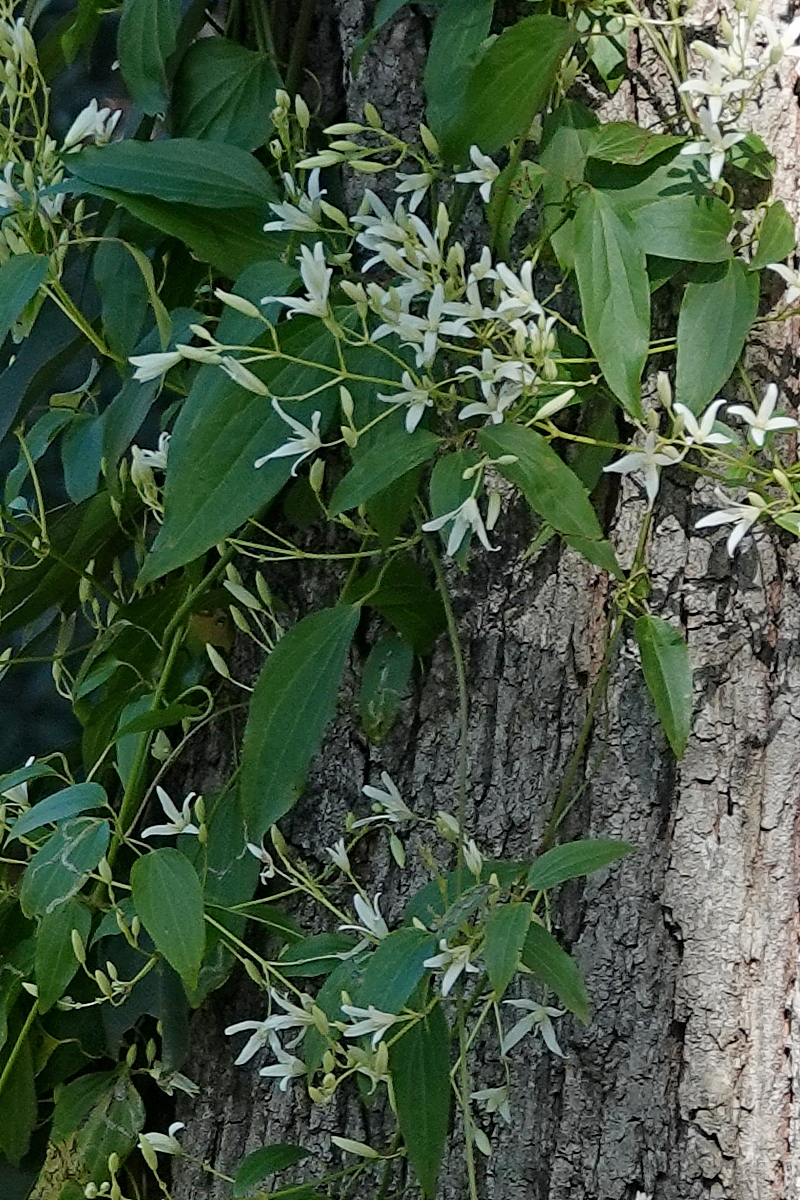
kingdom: Plantae
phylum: Tracheophyta
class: Magnoliopsida
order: Ranunculales
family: Ranunculaceae
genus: Clematis
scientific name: Clematis glycinoides
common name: Forest clematis
